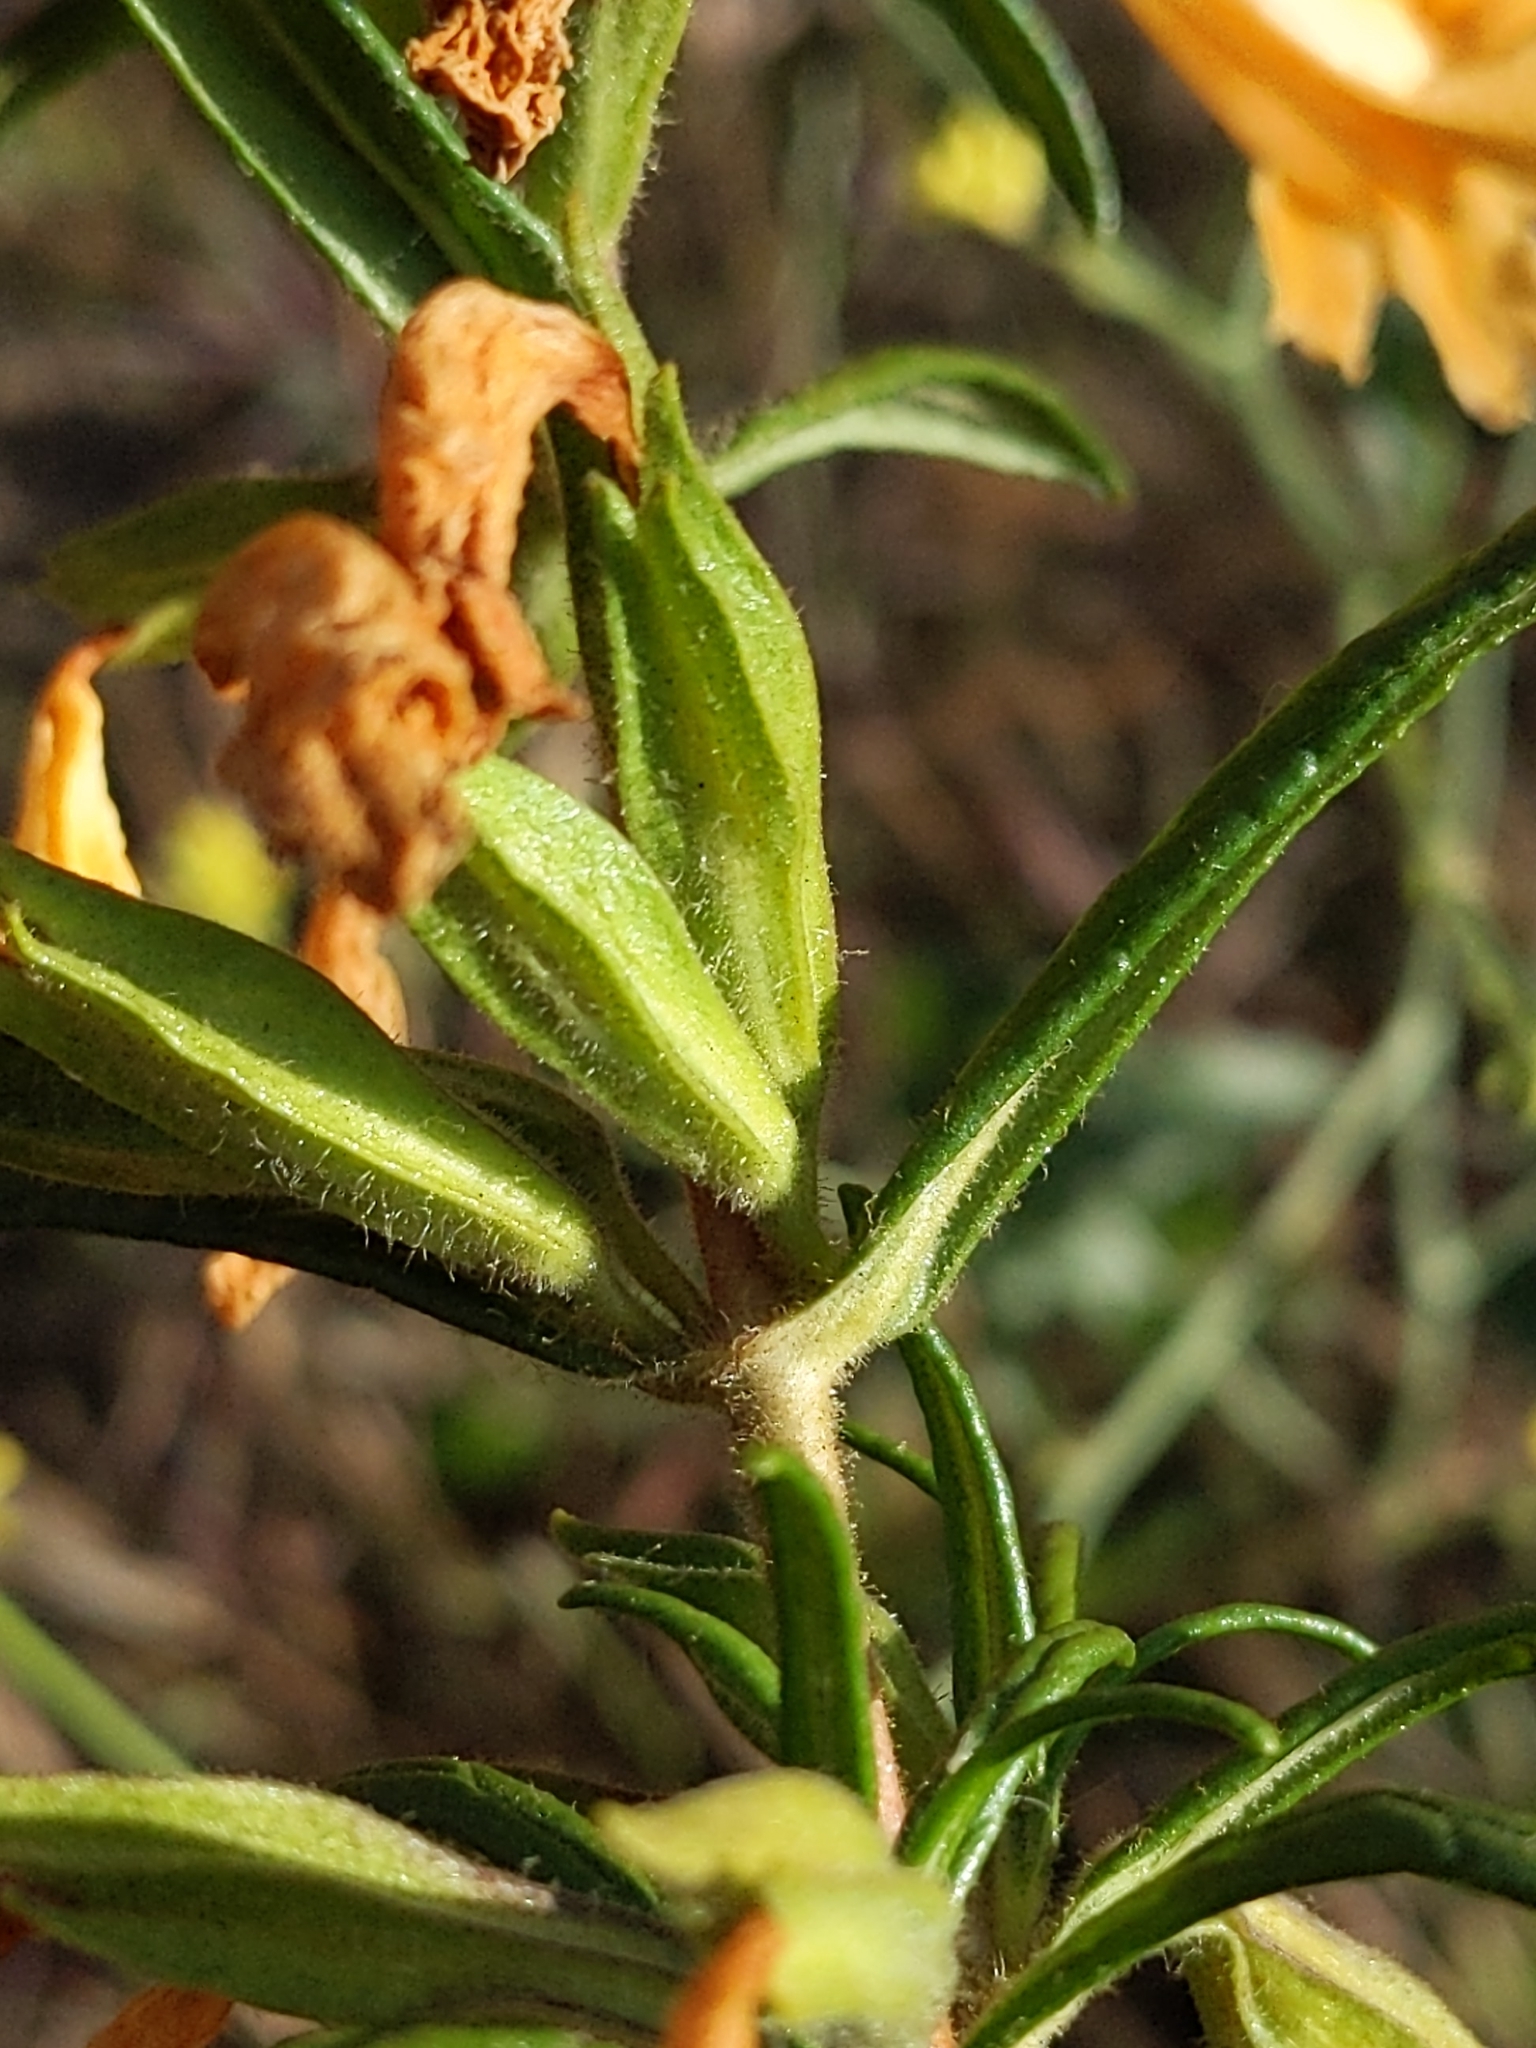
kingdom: Plantae
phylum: Tracheophyta
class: Magnoliopsida
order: Lamiales
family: Phrymaceae
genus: Diplacus
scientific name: Diplacus longiflorus
